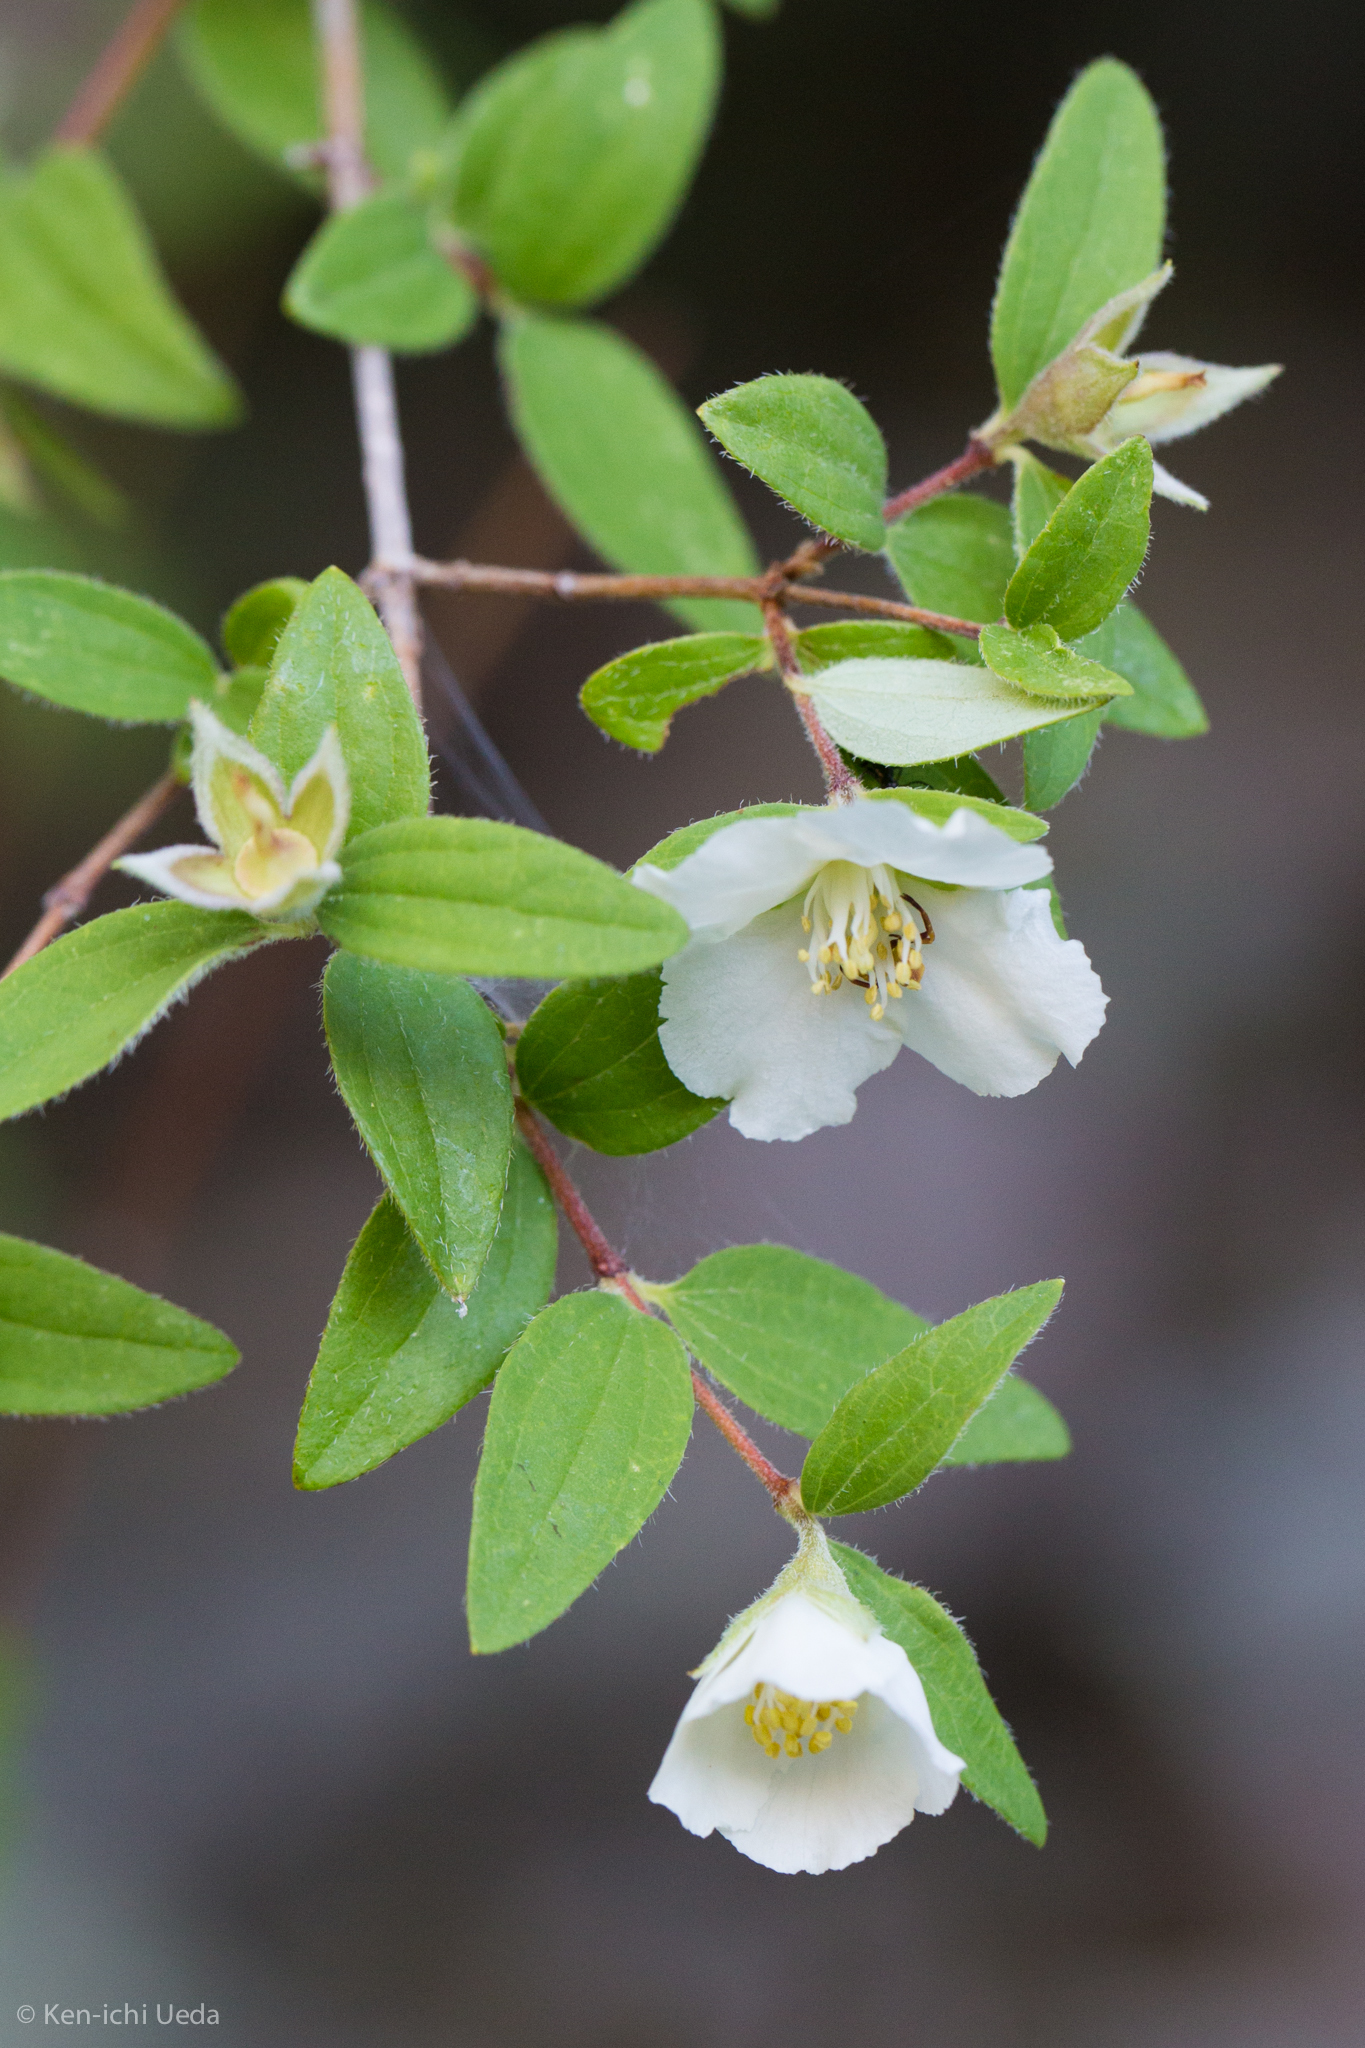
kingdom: Plantae
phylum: Tracheophyta
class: Magnoliopsida
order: Cornales
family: Hydrangeaceae
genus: Philadelphus
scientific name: Philadelphus microphyllus
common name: Desert mock orange
